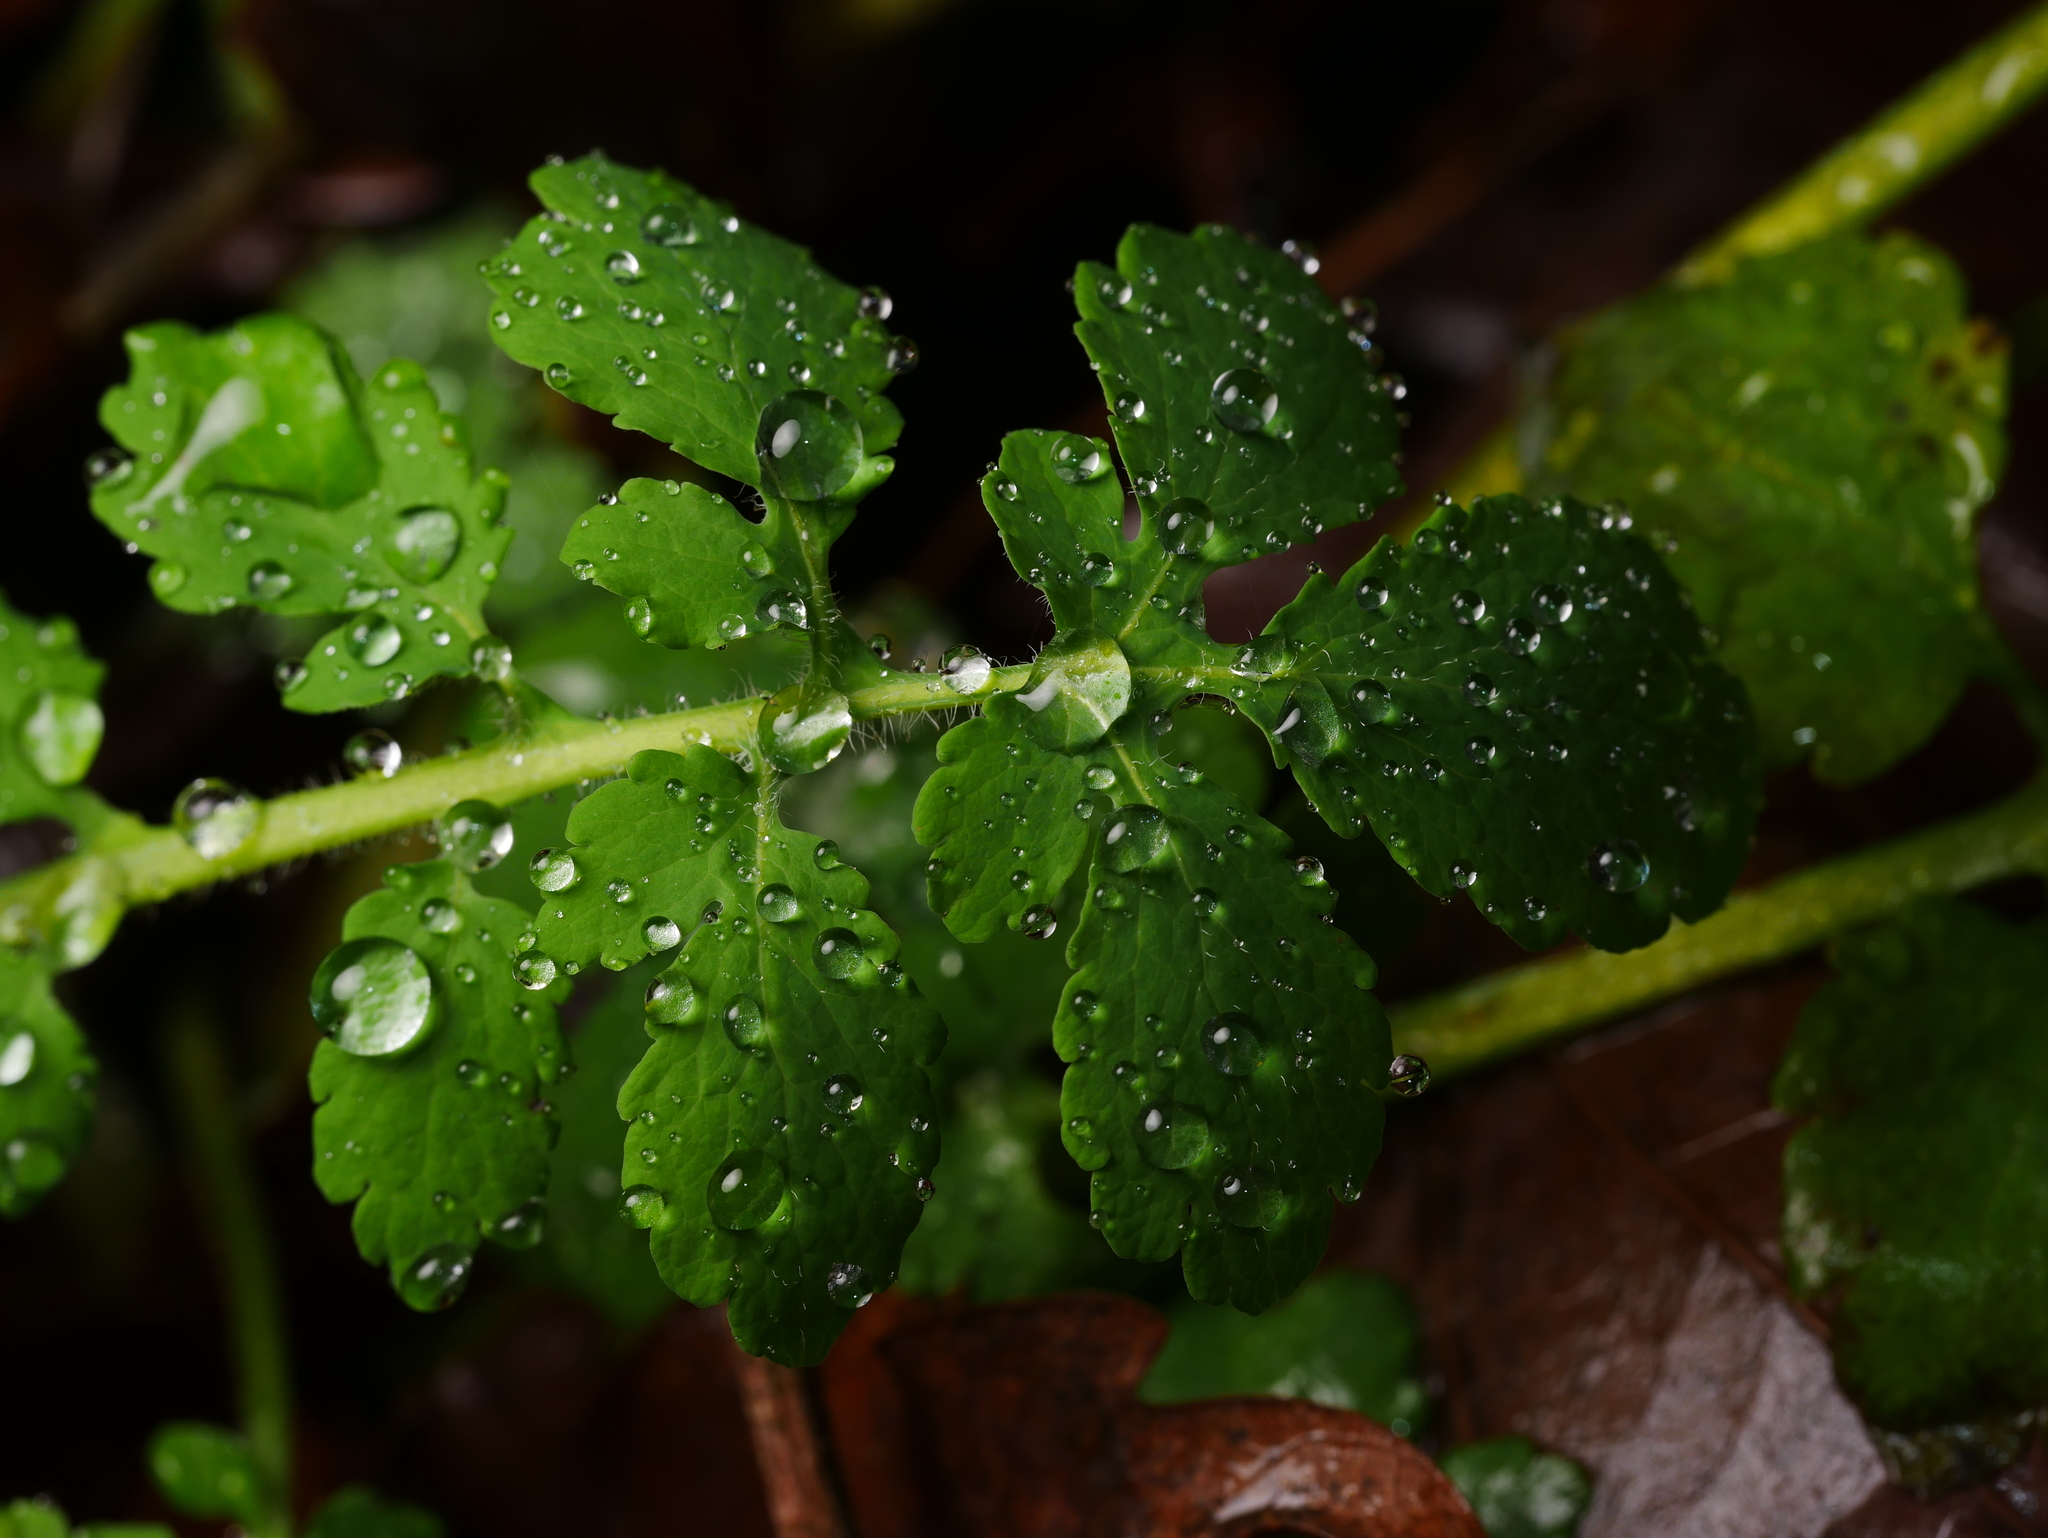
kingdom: Plantae
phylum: Tracheophyta
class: Magnoliopsida
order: Ranunculales
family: Papaveraceae
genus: Chelidonium
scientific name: Chelidonium majus
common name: Greater celandine
